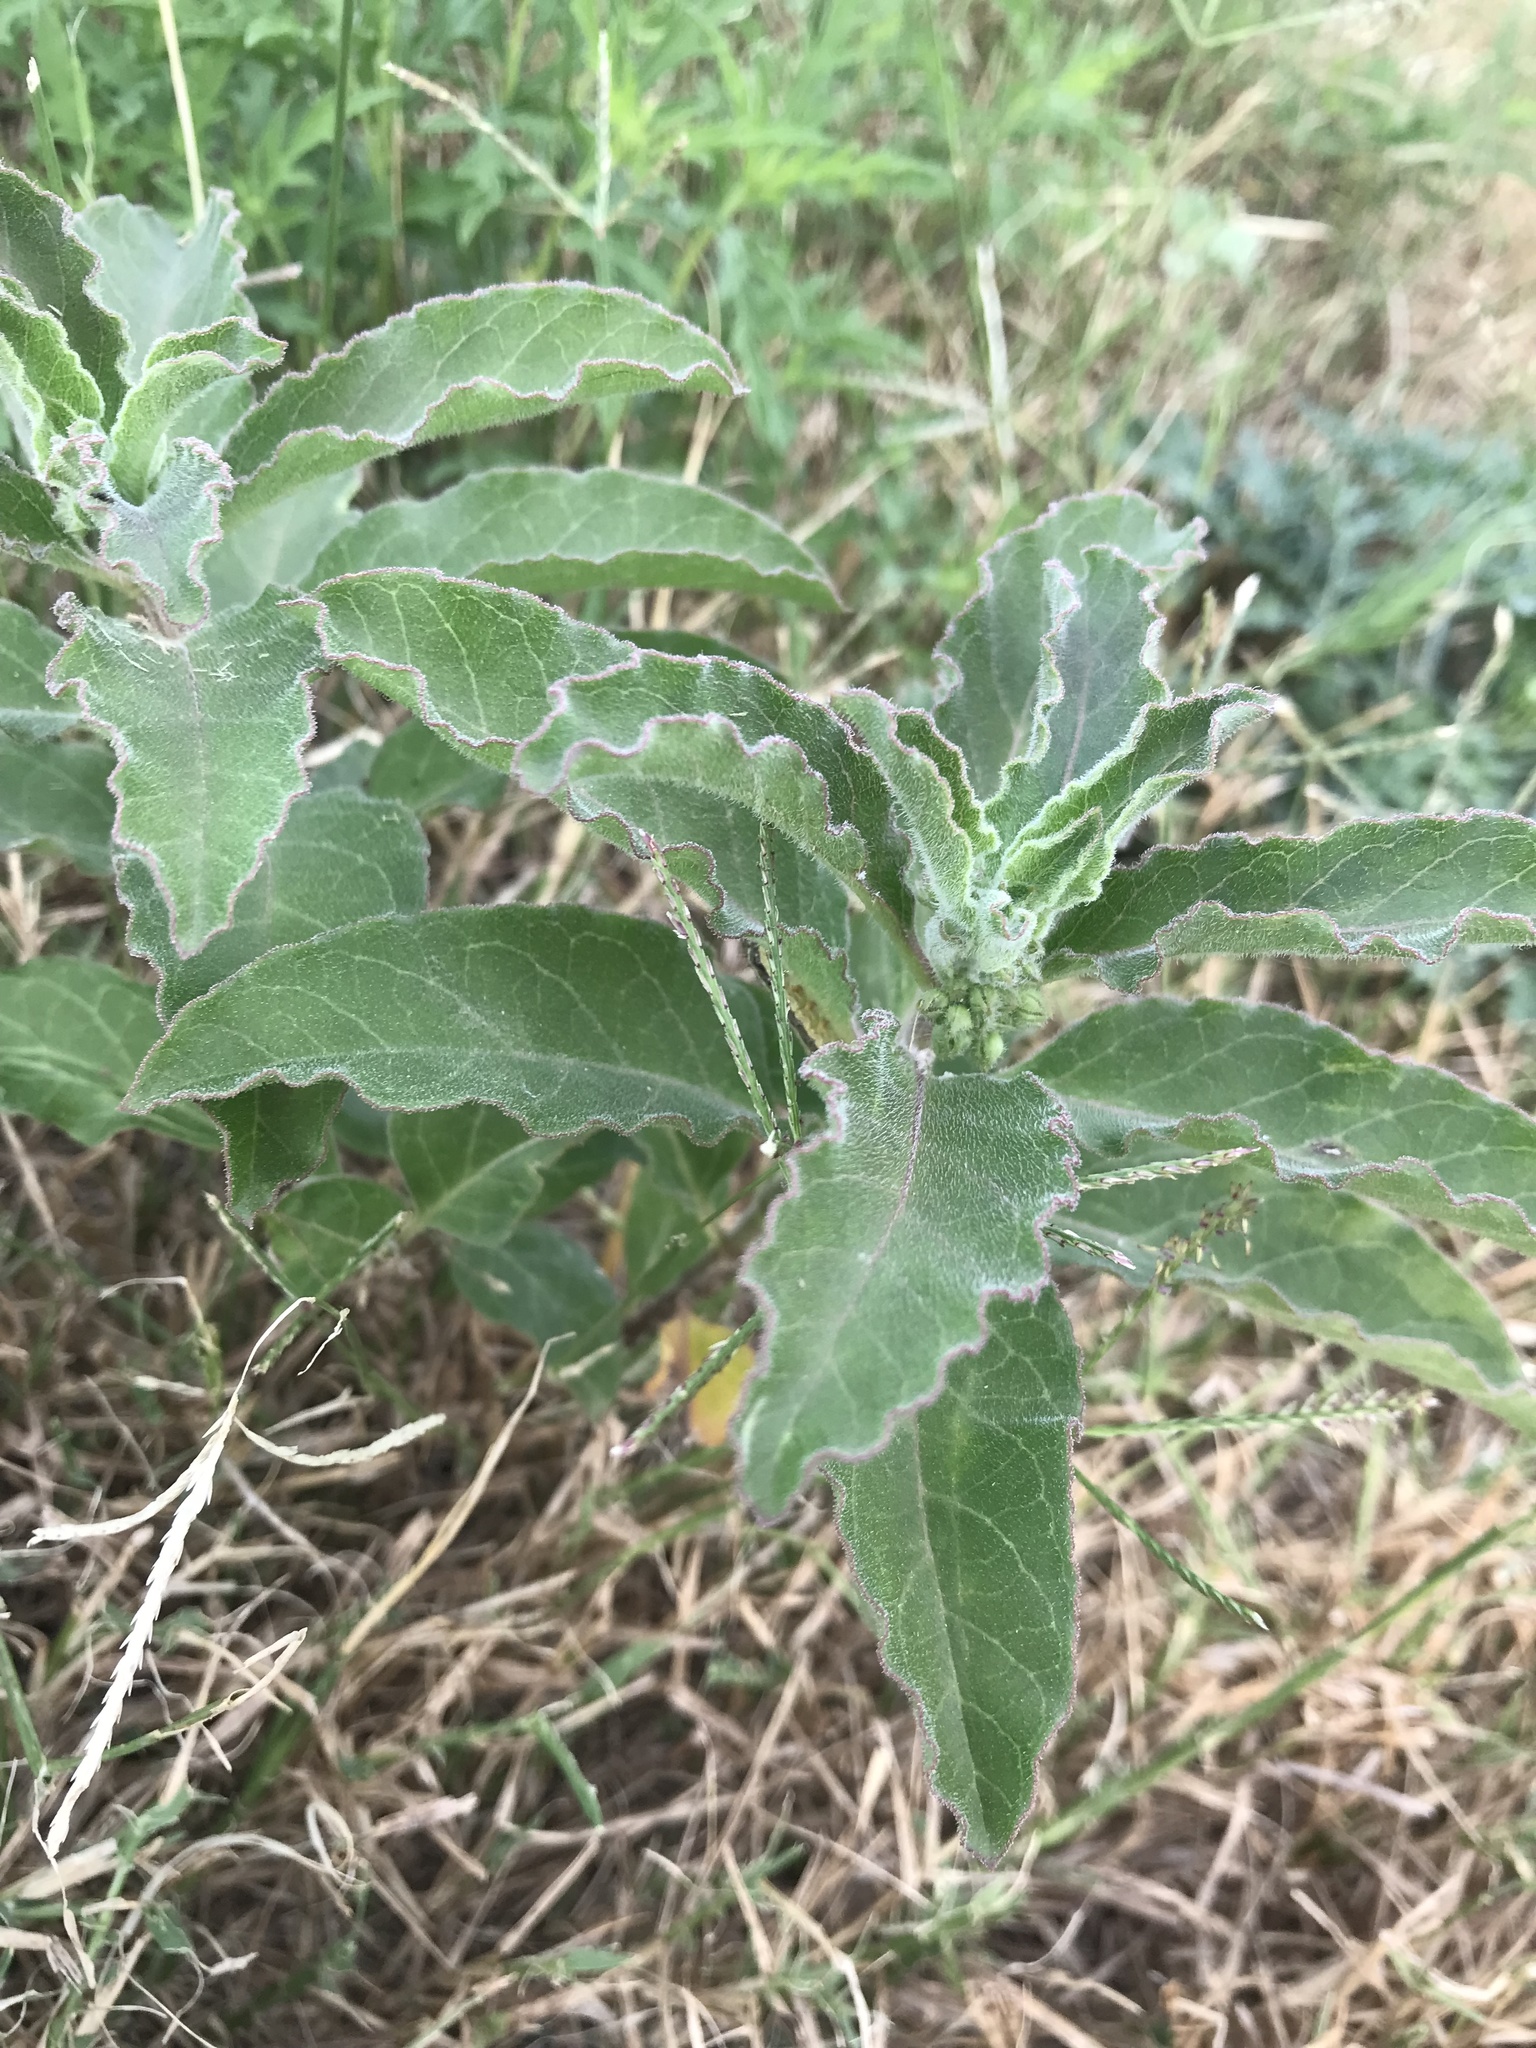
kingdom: Plantae
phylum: Tracheophyta
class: Magnoliopsida
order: Gentianales
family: Apocynaceae
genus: Asclepias
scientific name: Asclepias oenotheroides
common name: Zizotes milkweed
